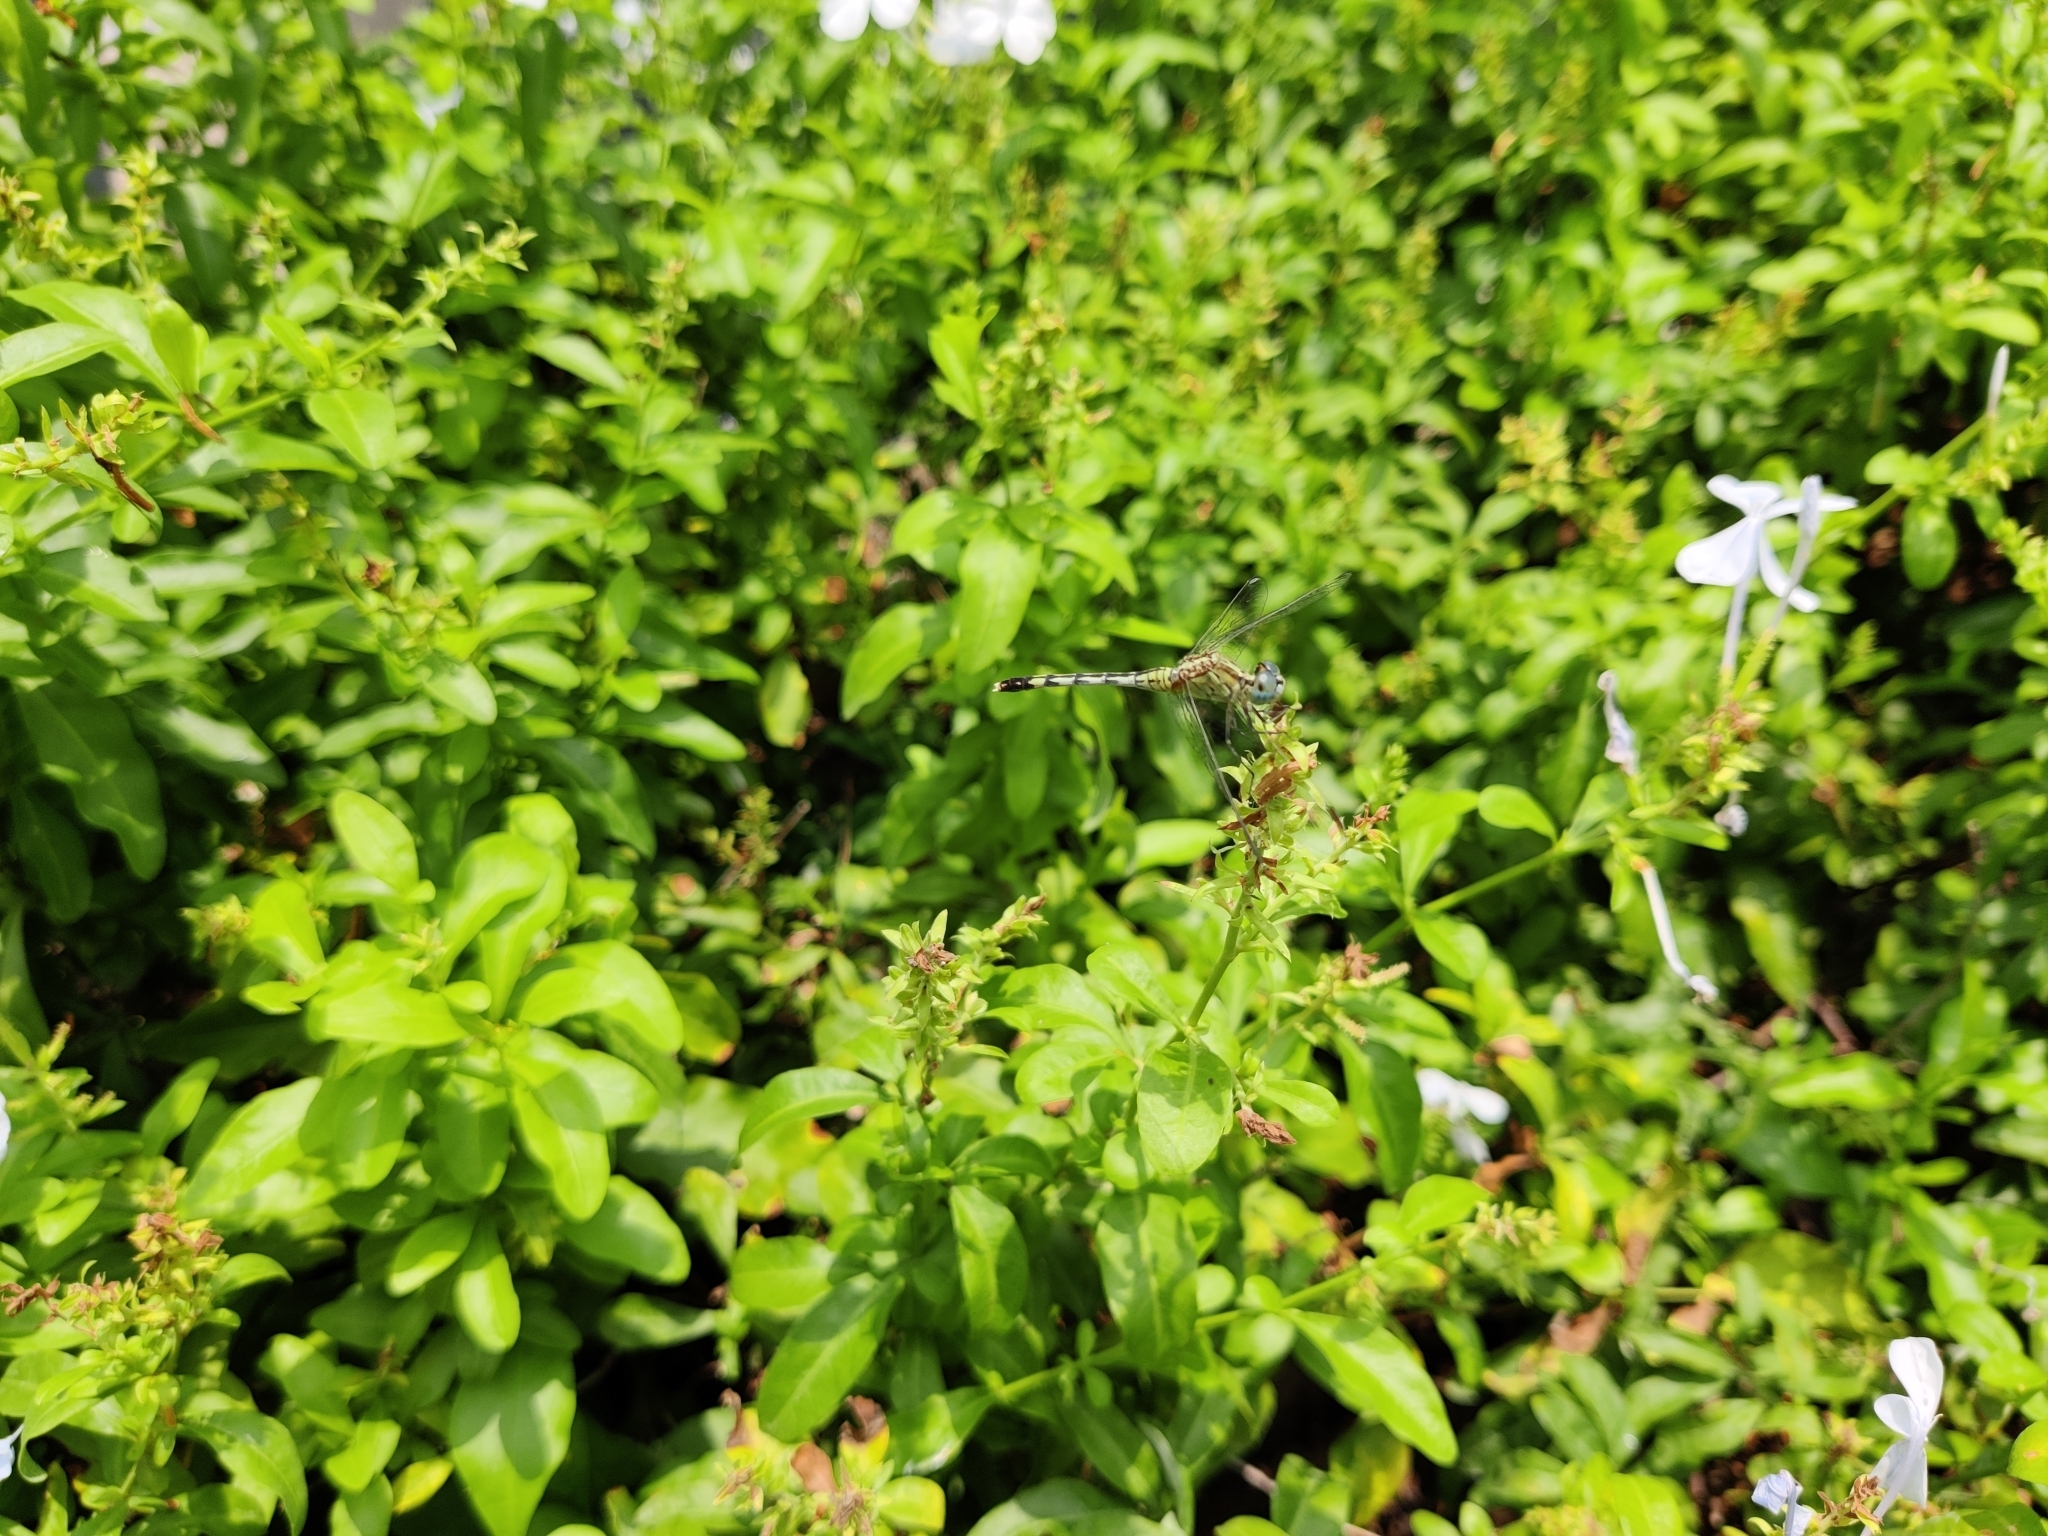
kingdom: Animalia
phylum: Arthropoda
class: Insecta
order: Odonata
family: Libellulidae
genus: Diplacodes
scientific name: Diplacodes trivialis
